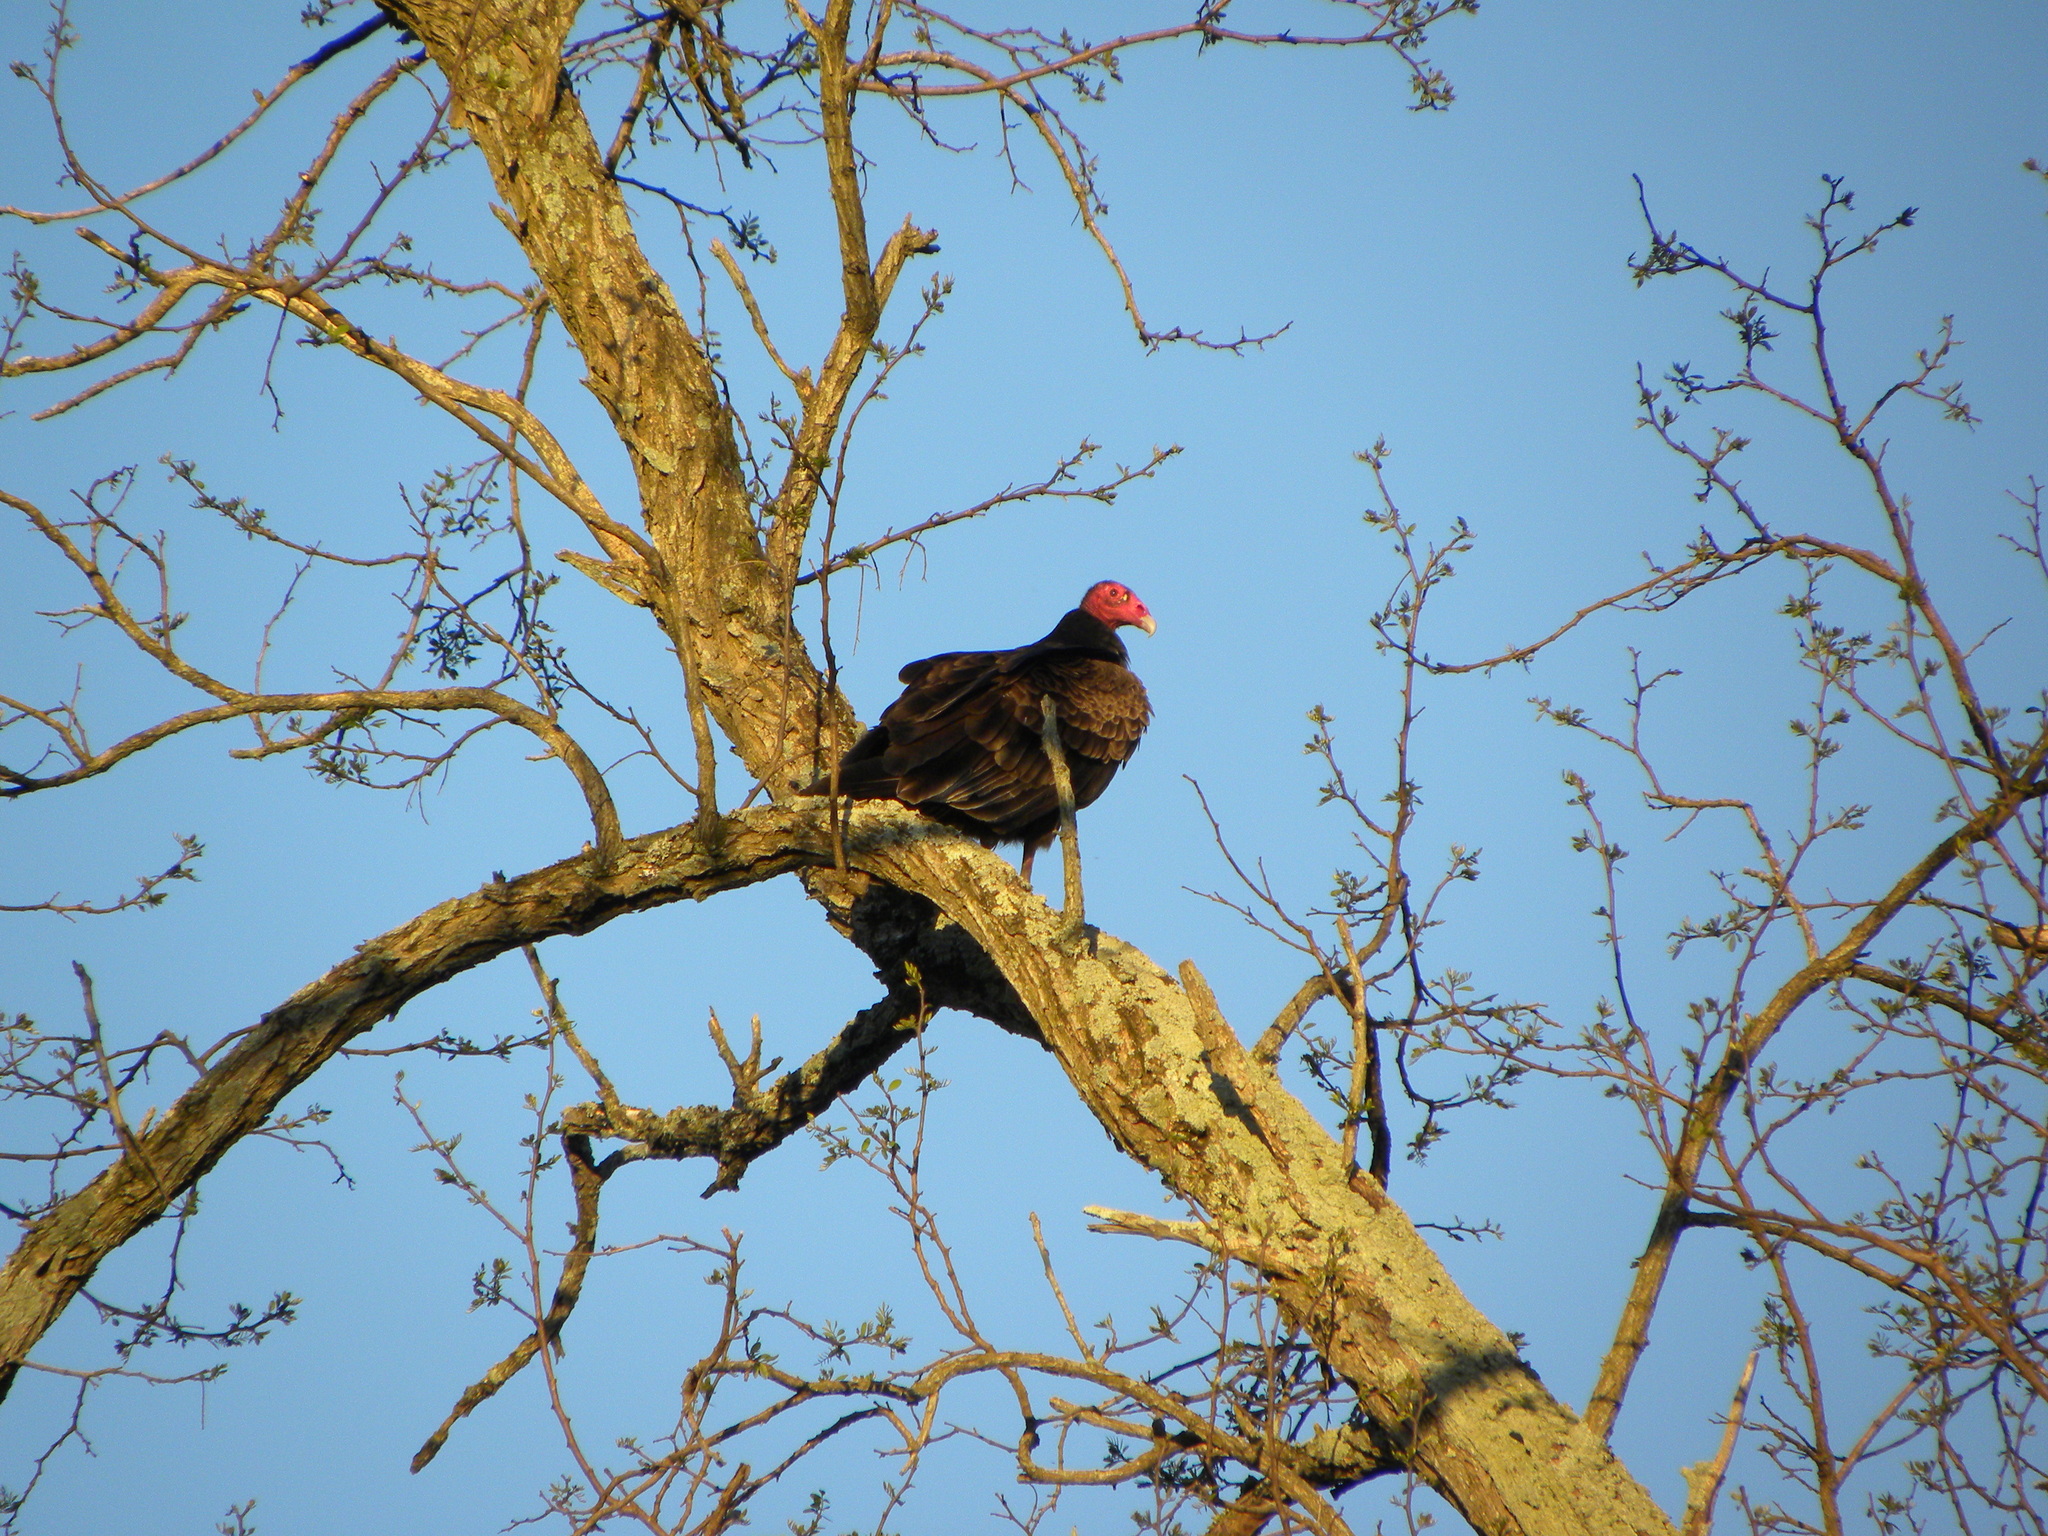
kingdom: Animalia
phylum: Chordata
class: Aves
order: Accipitriformes
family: Cathartidae
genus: Cathartes
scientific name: Cathartes aura
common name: Turkey vulture
